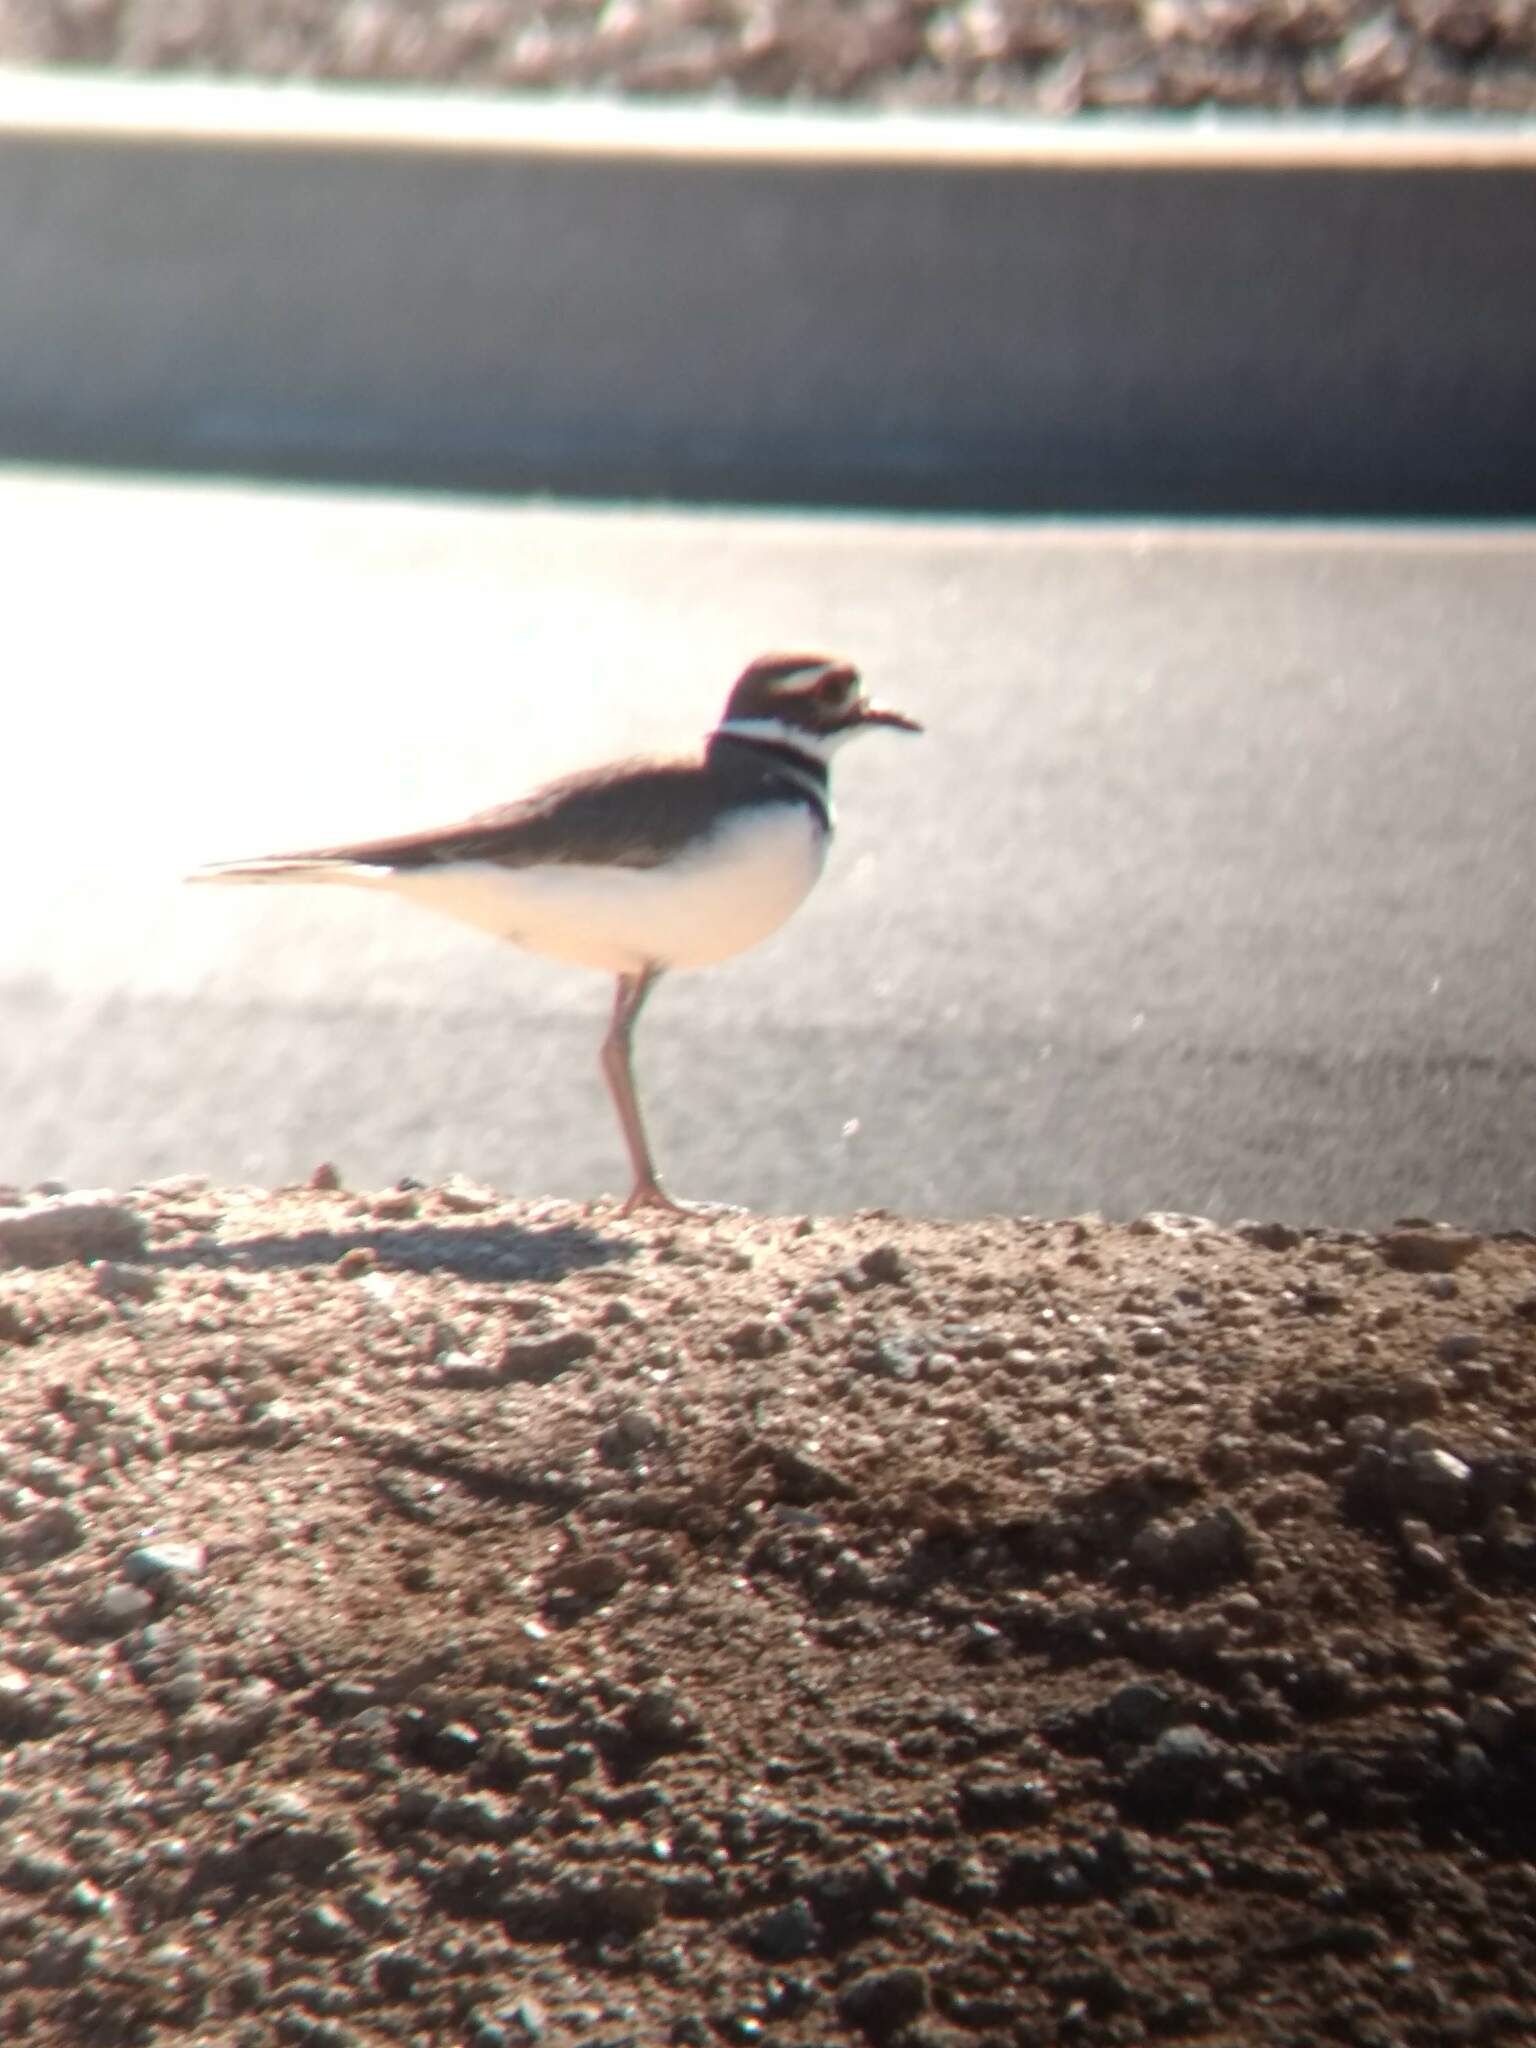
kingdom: Animalia
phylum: Chordata
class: Aves
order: Charadriiformes
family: Charadriidae
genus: Charadrius
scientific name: Charadrius vociferus
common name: Killdeer
